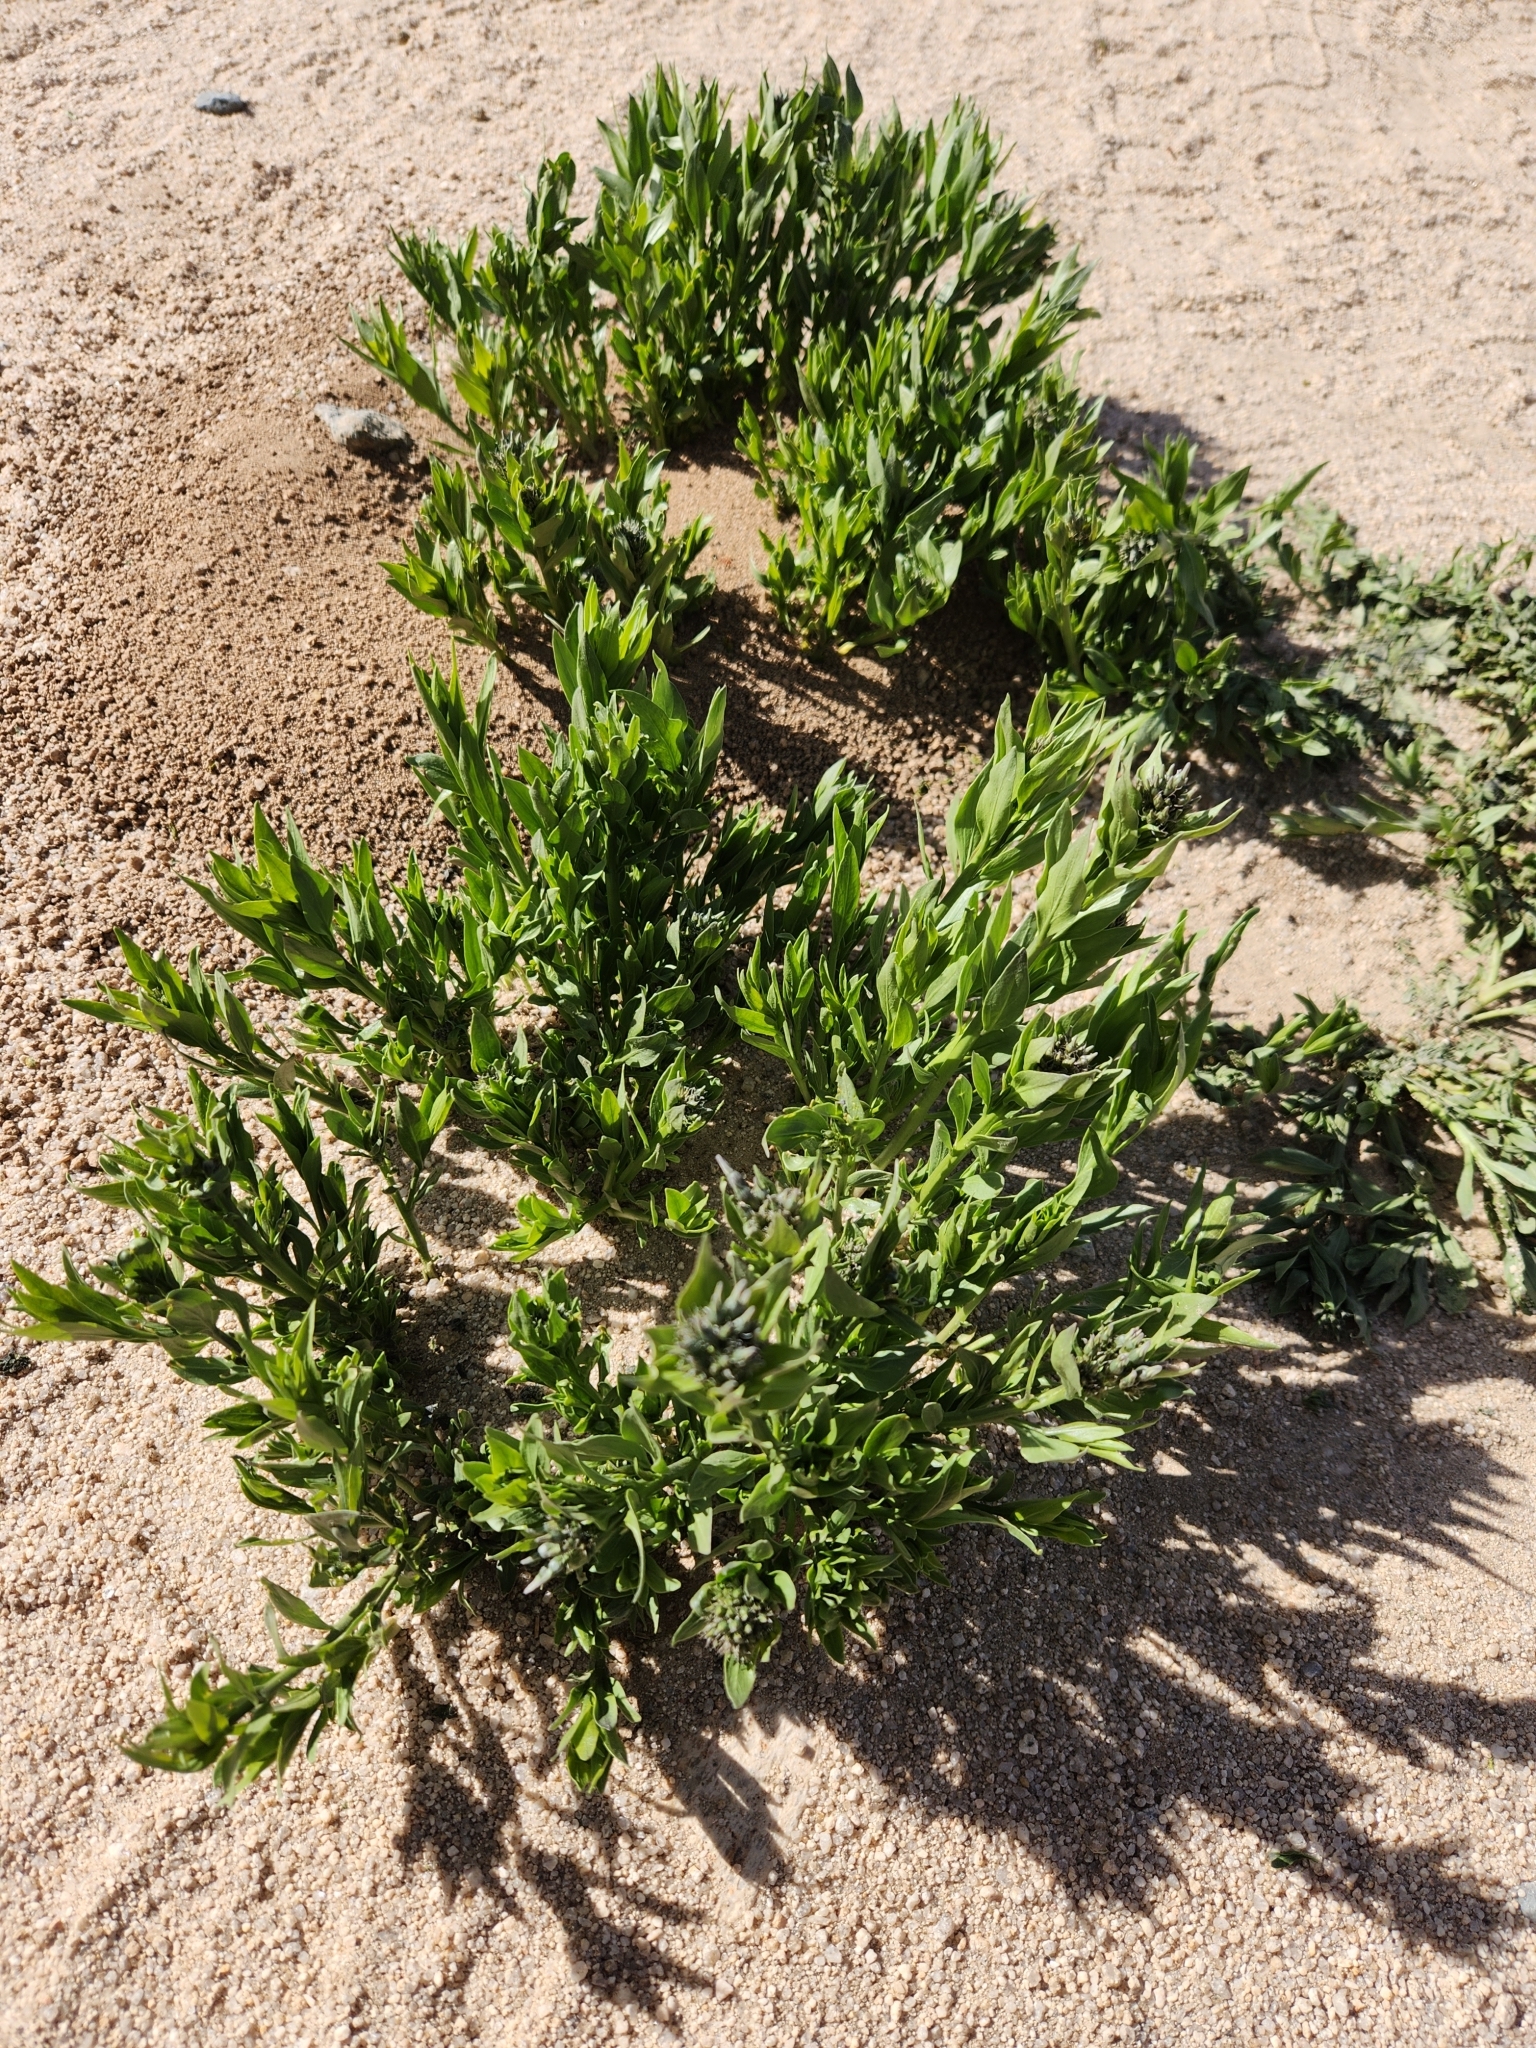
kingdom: Plantae
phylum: Tracheophyta
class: Magnoliopsida
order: Gentianales
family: Apocynaceae
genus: Amsonia
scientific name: Amsonia tomentosa
